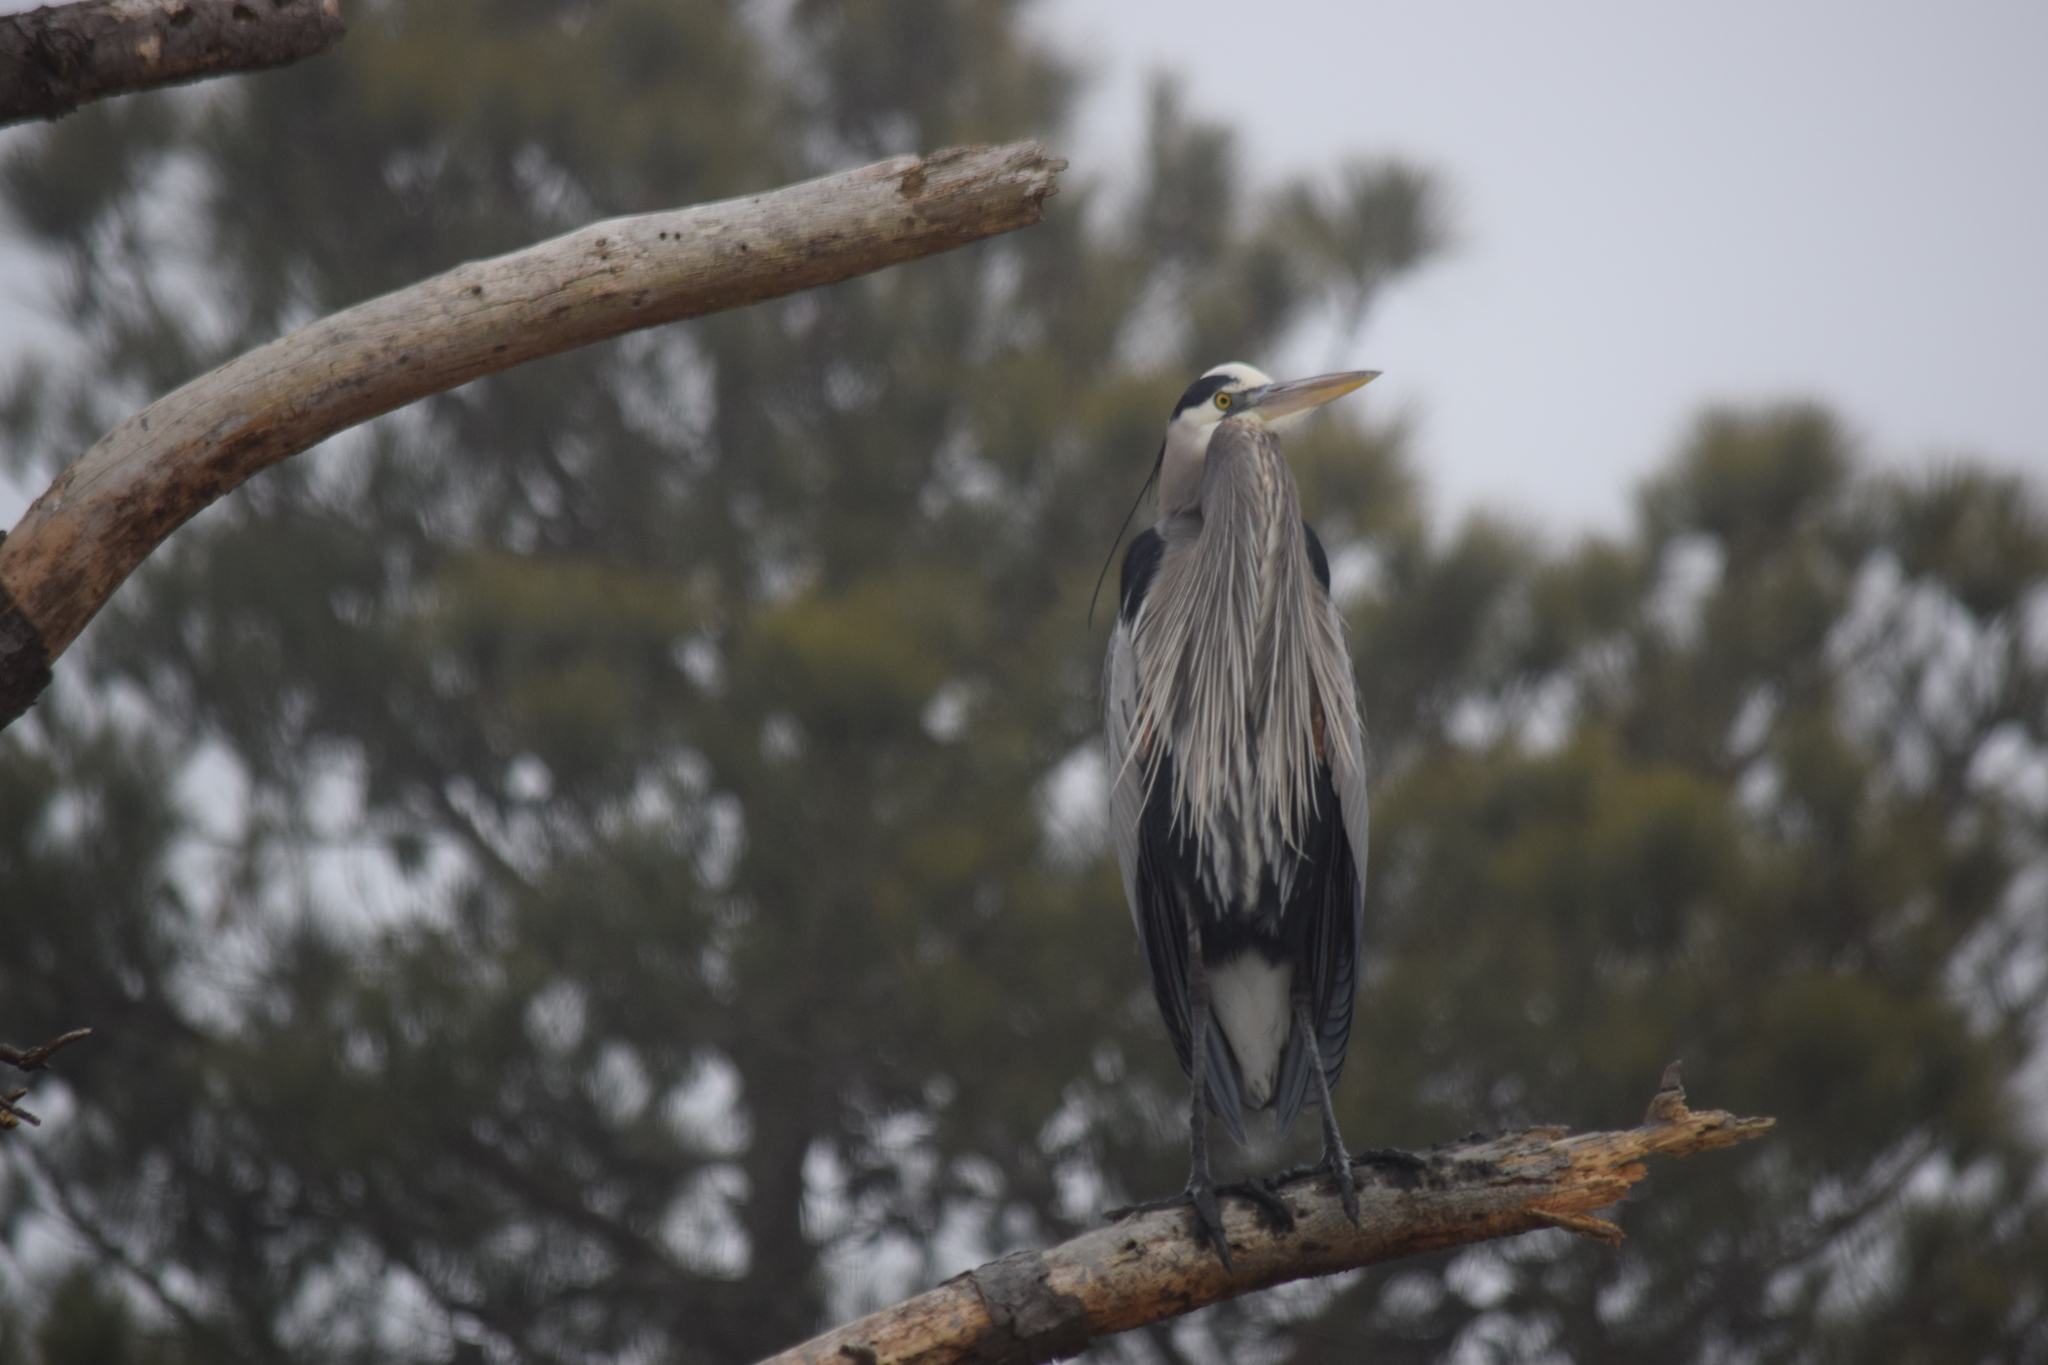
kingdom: Animalia
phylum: Chordata
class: Aves
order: Pelecaniformes
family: Ardeidae
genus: Ardea
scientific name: Ardea herodias
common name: Great blue heron
